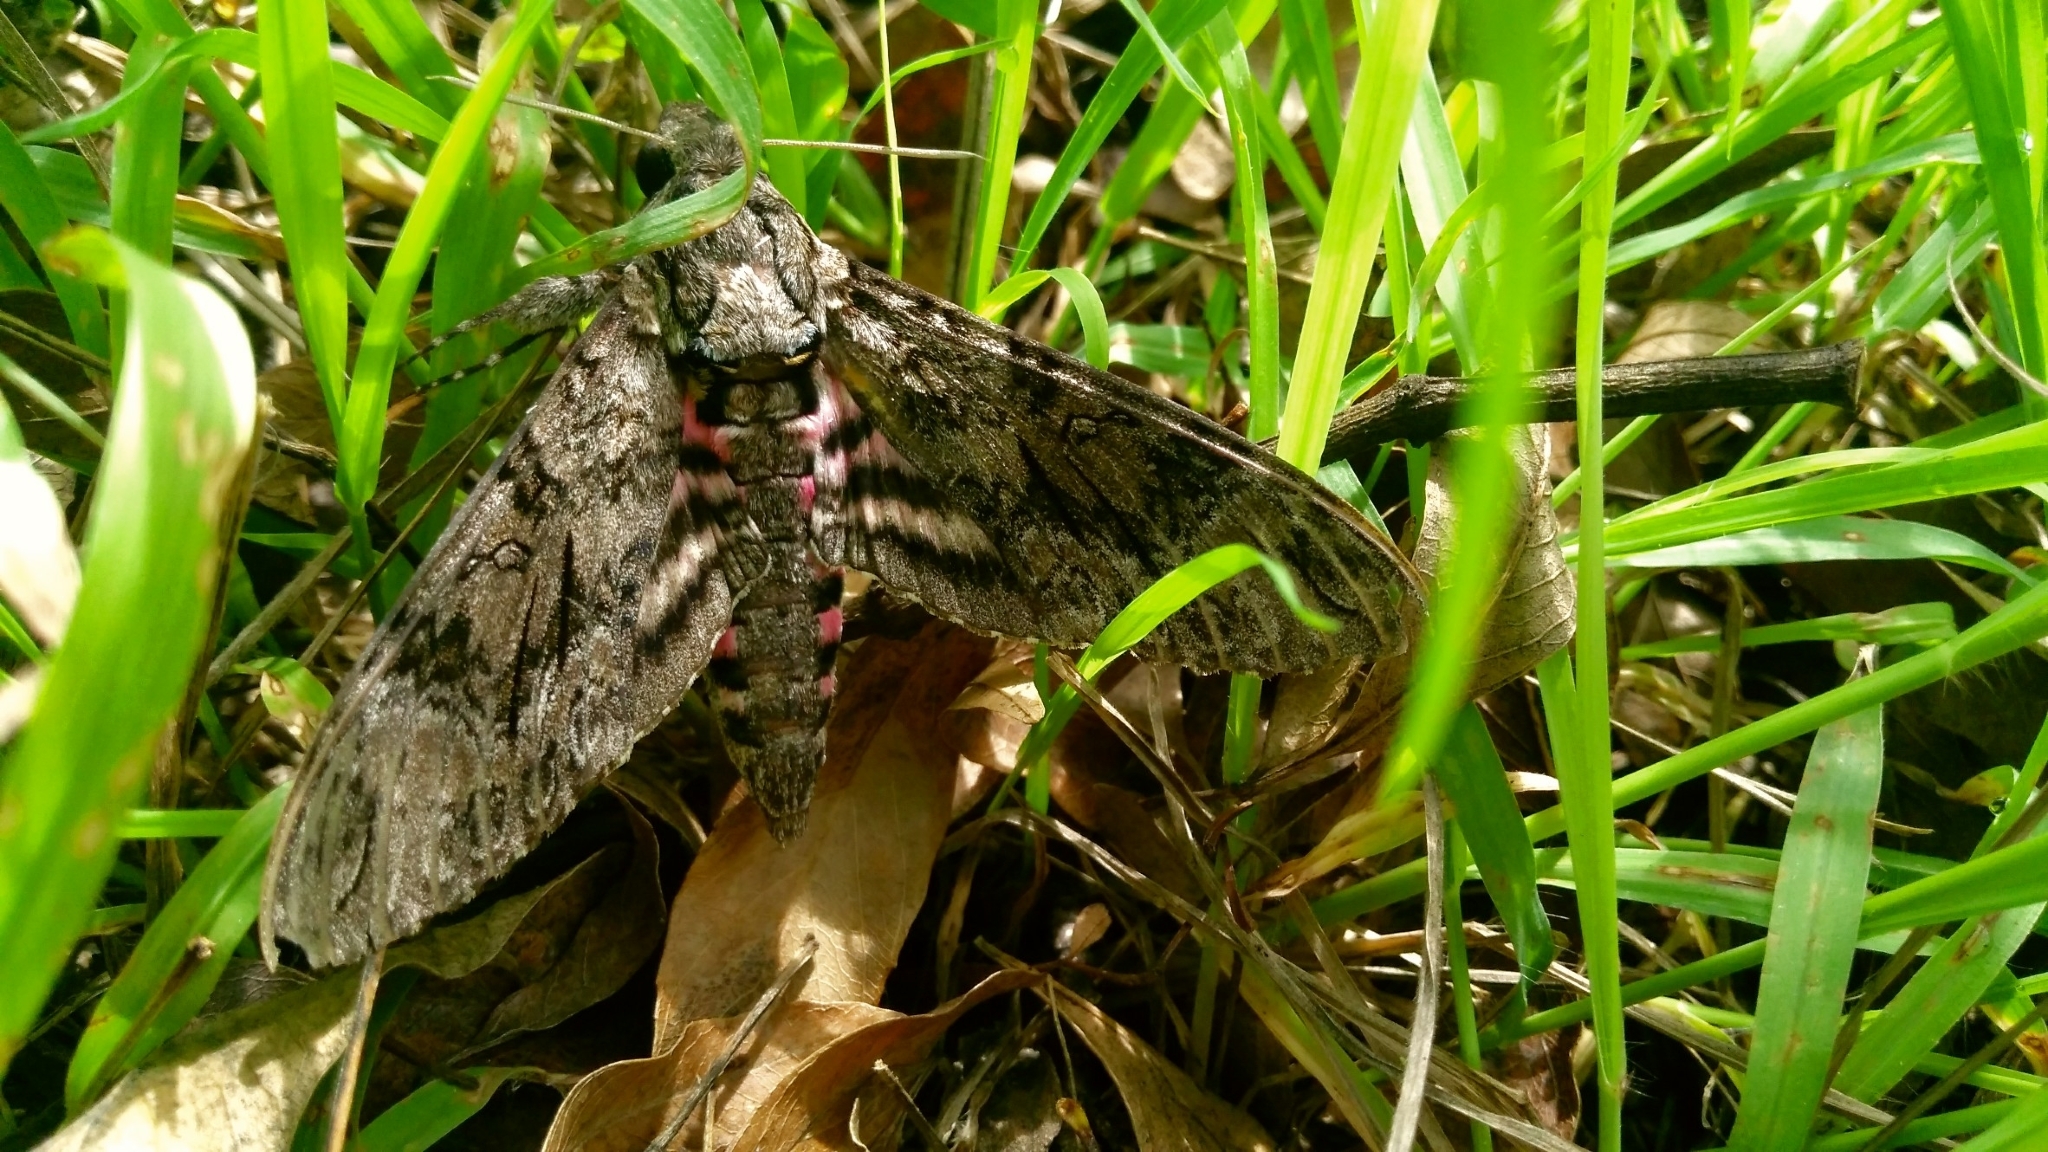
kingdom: Animalia
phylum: Arthropoda
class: Insecta
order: Lepidoptera
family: Sphingidae
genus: Agrius
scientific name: Agrius cingulata
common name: Pink-spotted hawkmoth
